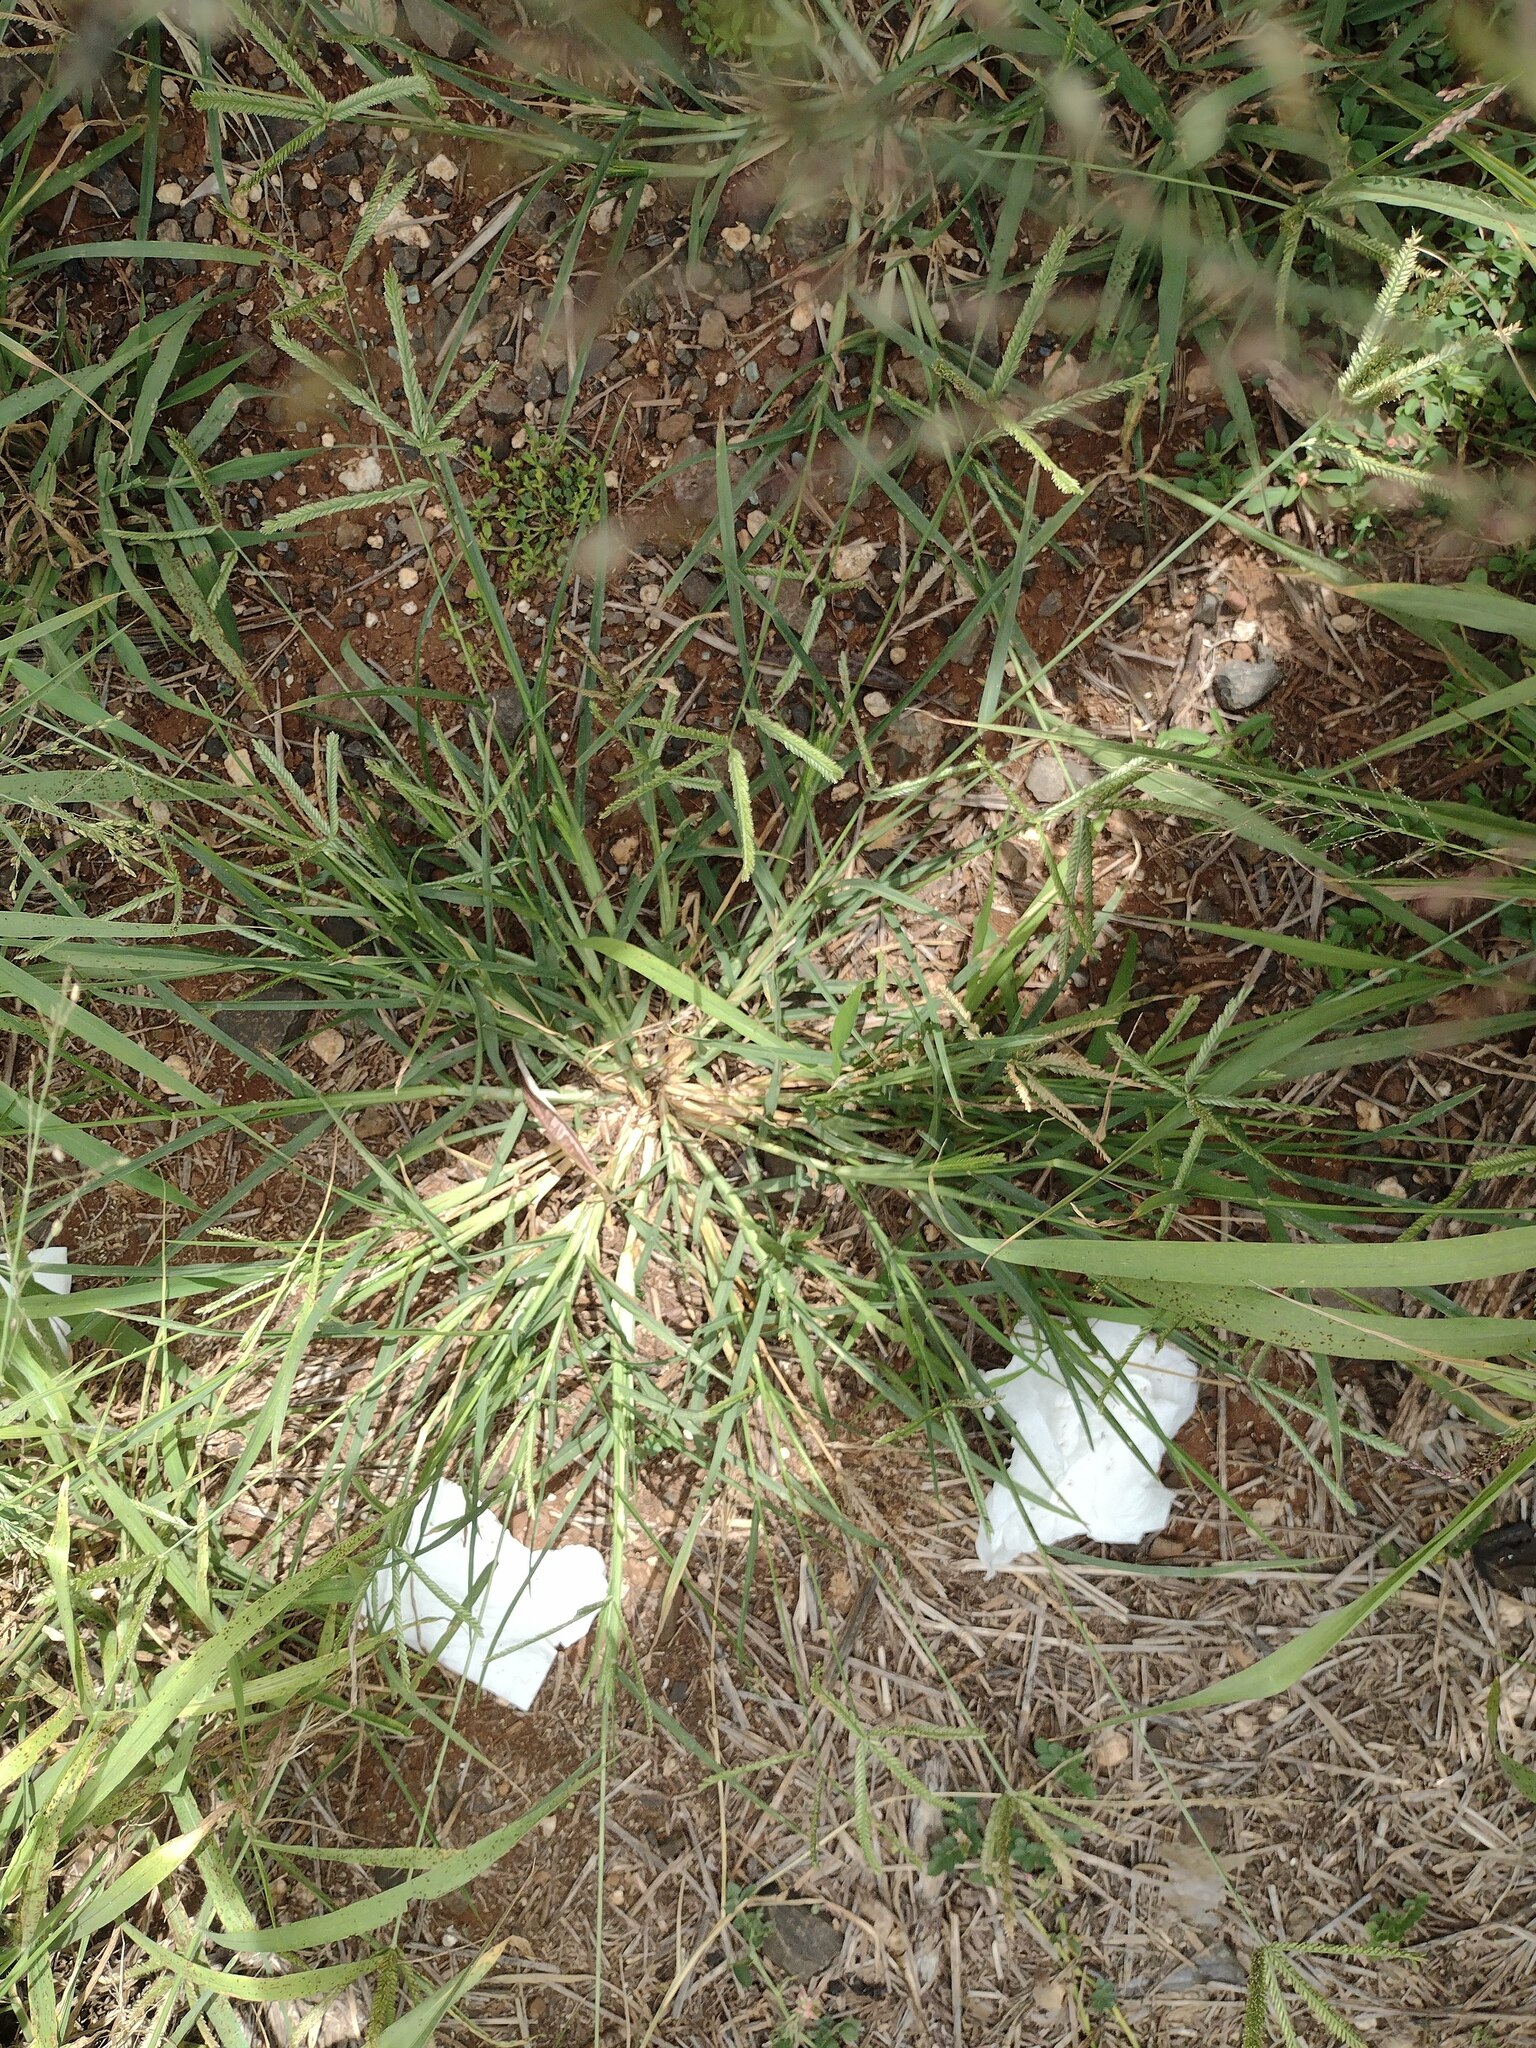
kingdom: Plantae
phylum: Tracheophyta
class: Liliopsida
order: Poales
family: Poaceae
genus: Eleusine
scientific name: Eleusine indica
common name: Yard-grass
